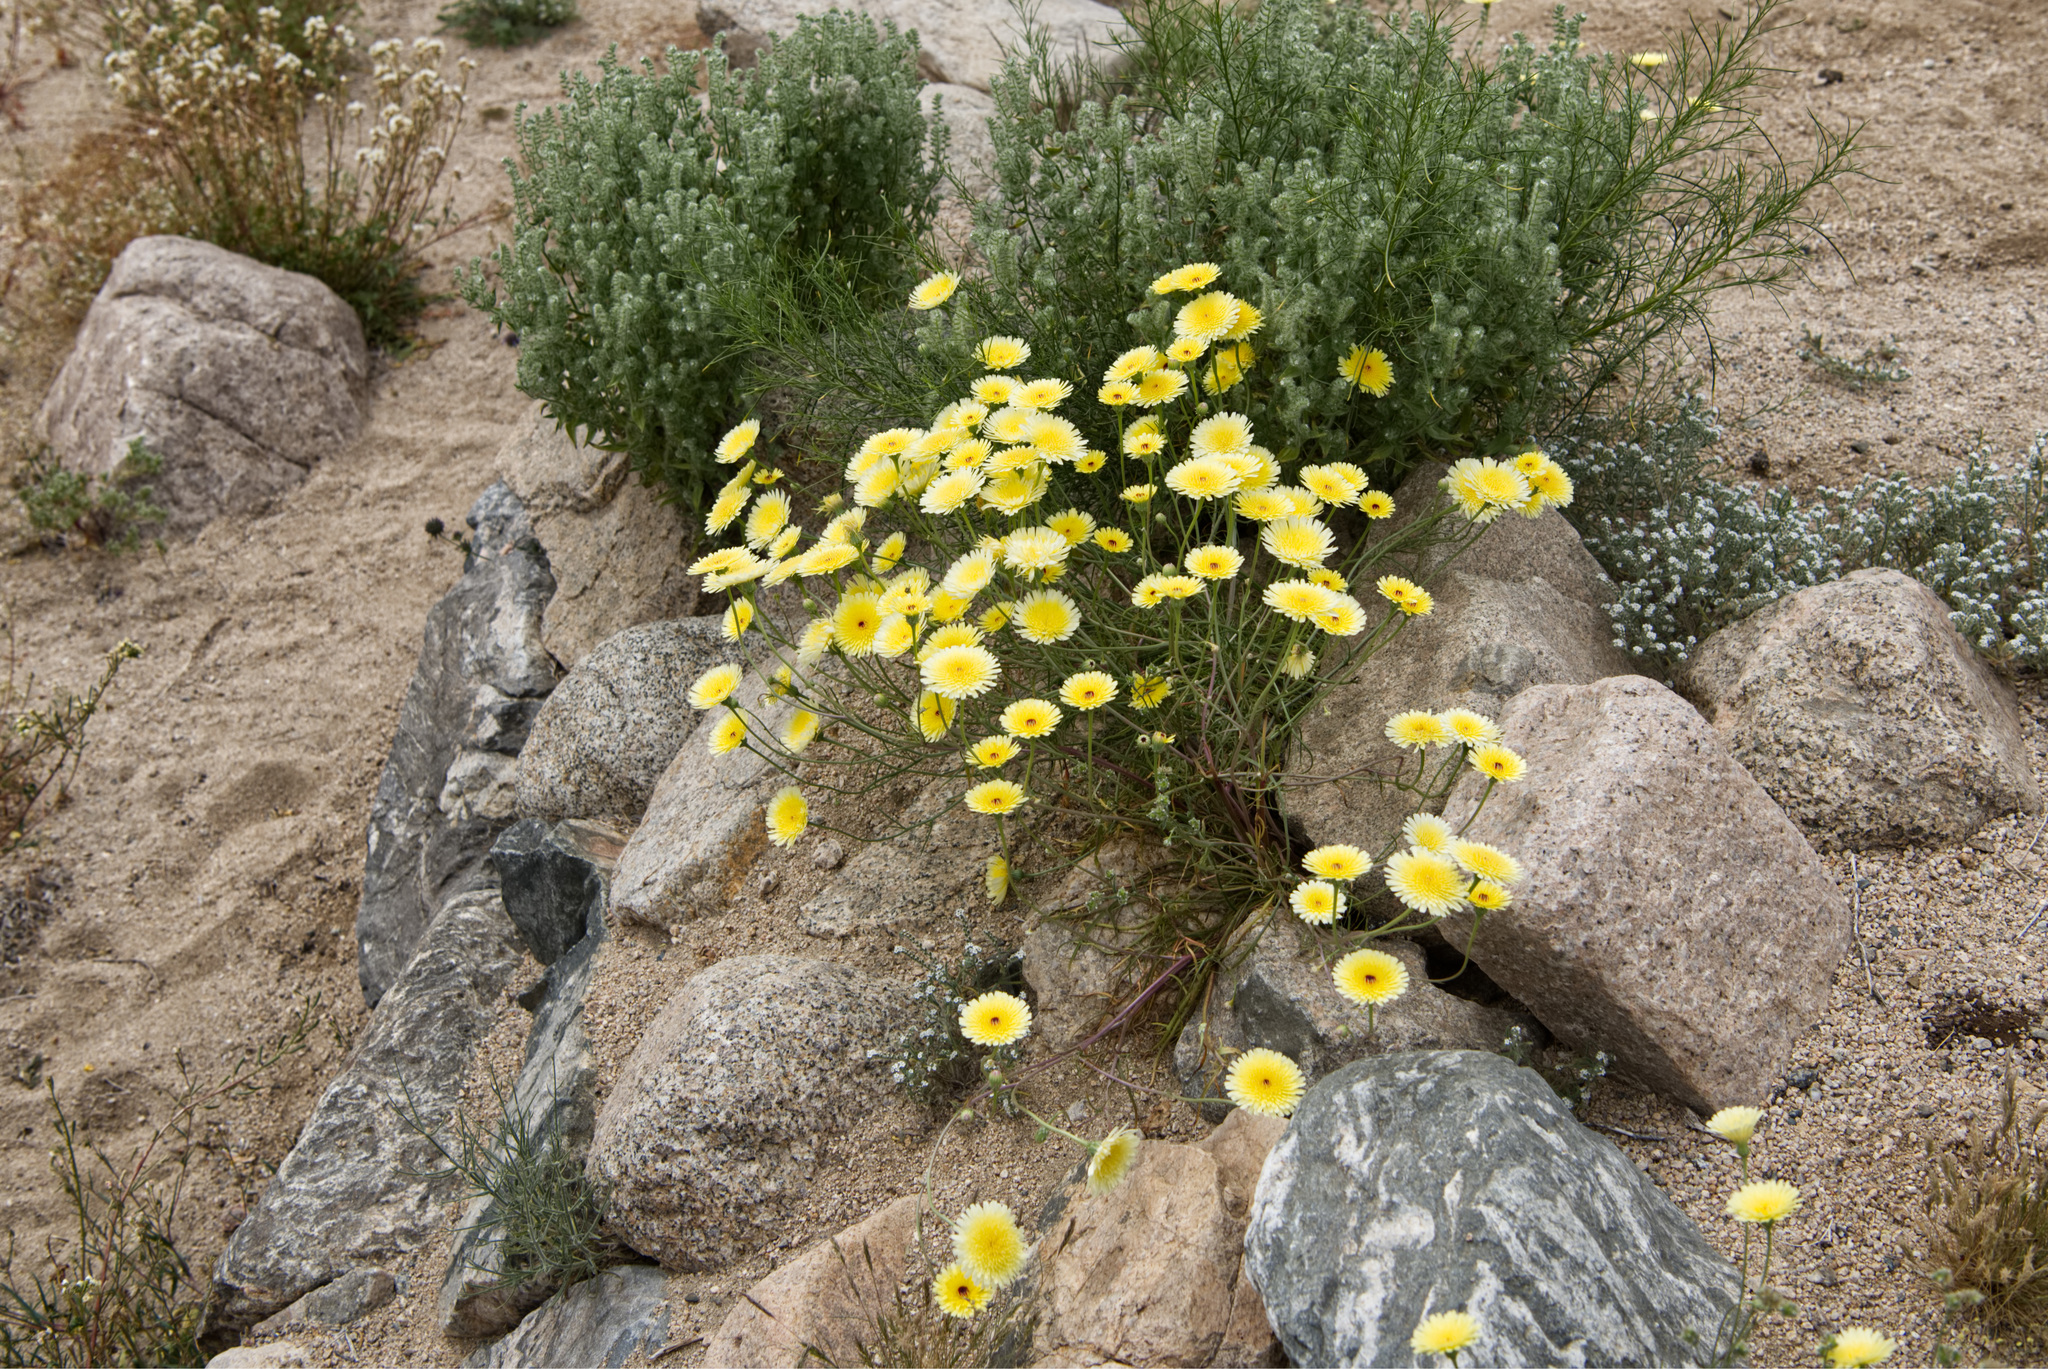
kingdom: Plantae
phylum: Tracheophyta
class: Magnoliopsida
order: Asterales
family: Asteraceae
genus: Malacothrix
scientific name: Malacothrix glabrata
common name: Smooth desert-dandelion
